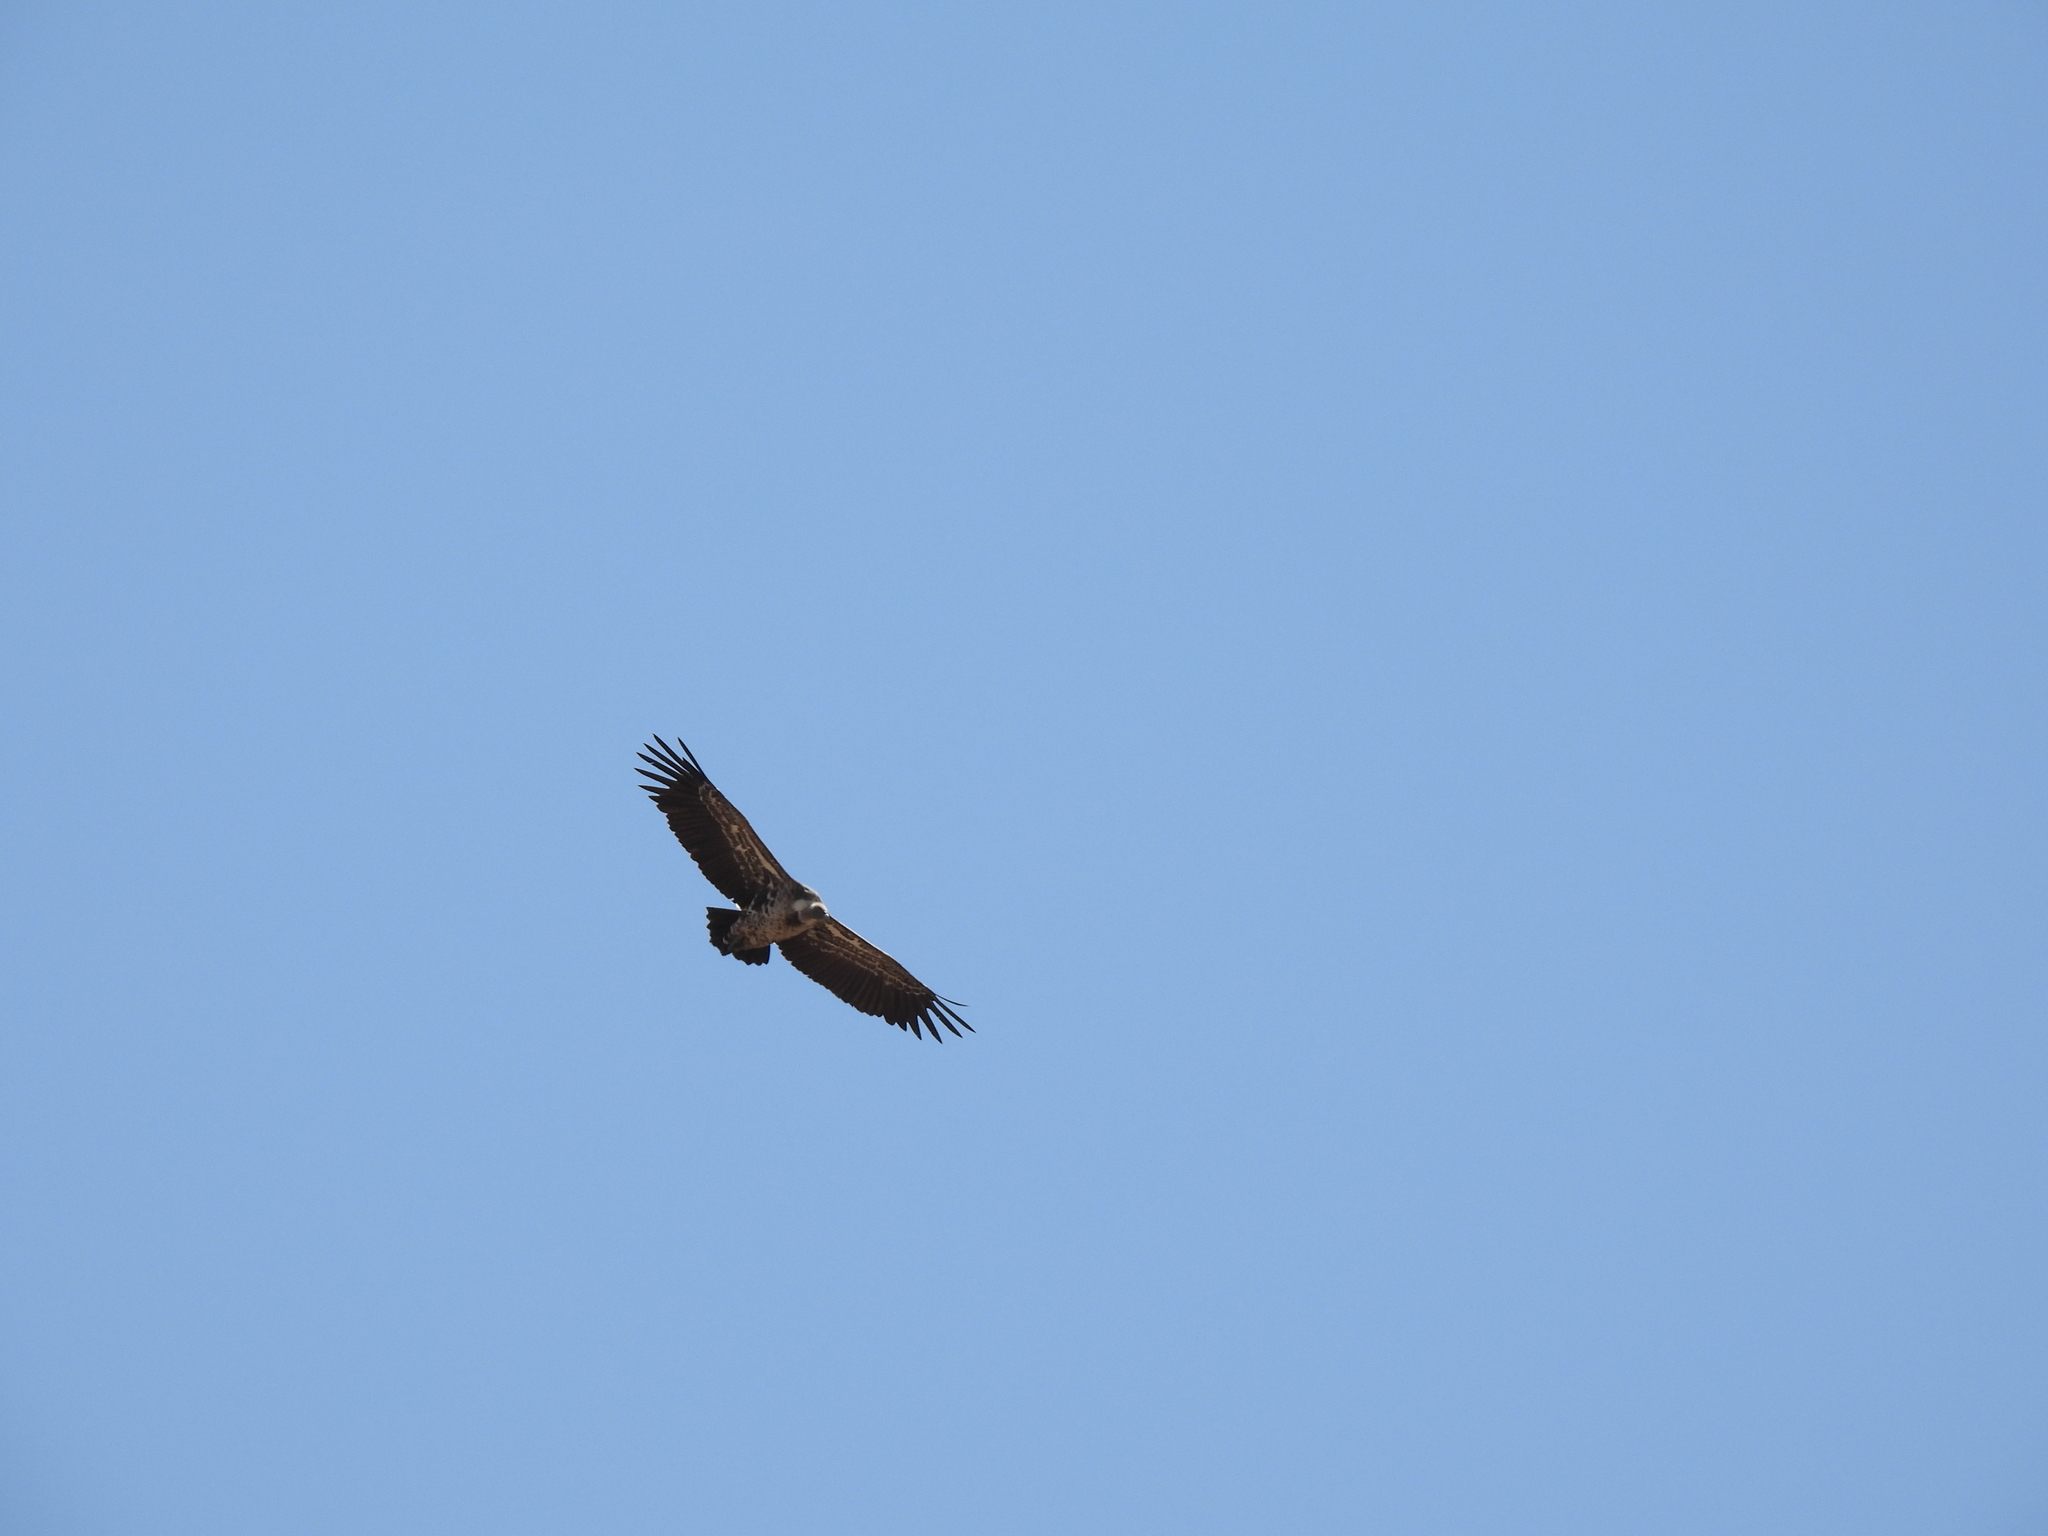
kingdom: Animalia
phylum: Chordata
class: Aves
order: Accipitriformes
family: Accipitridae
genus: Gyps
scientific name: Gyps rueppellii
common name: Rüppell's vulture
